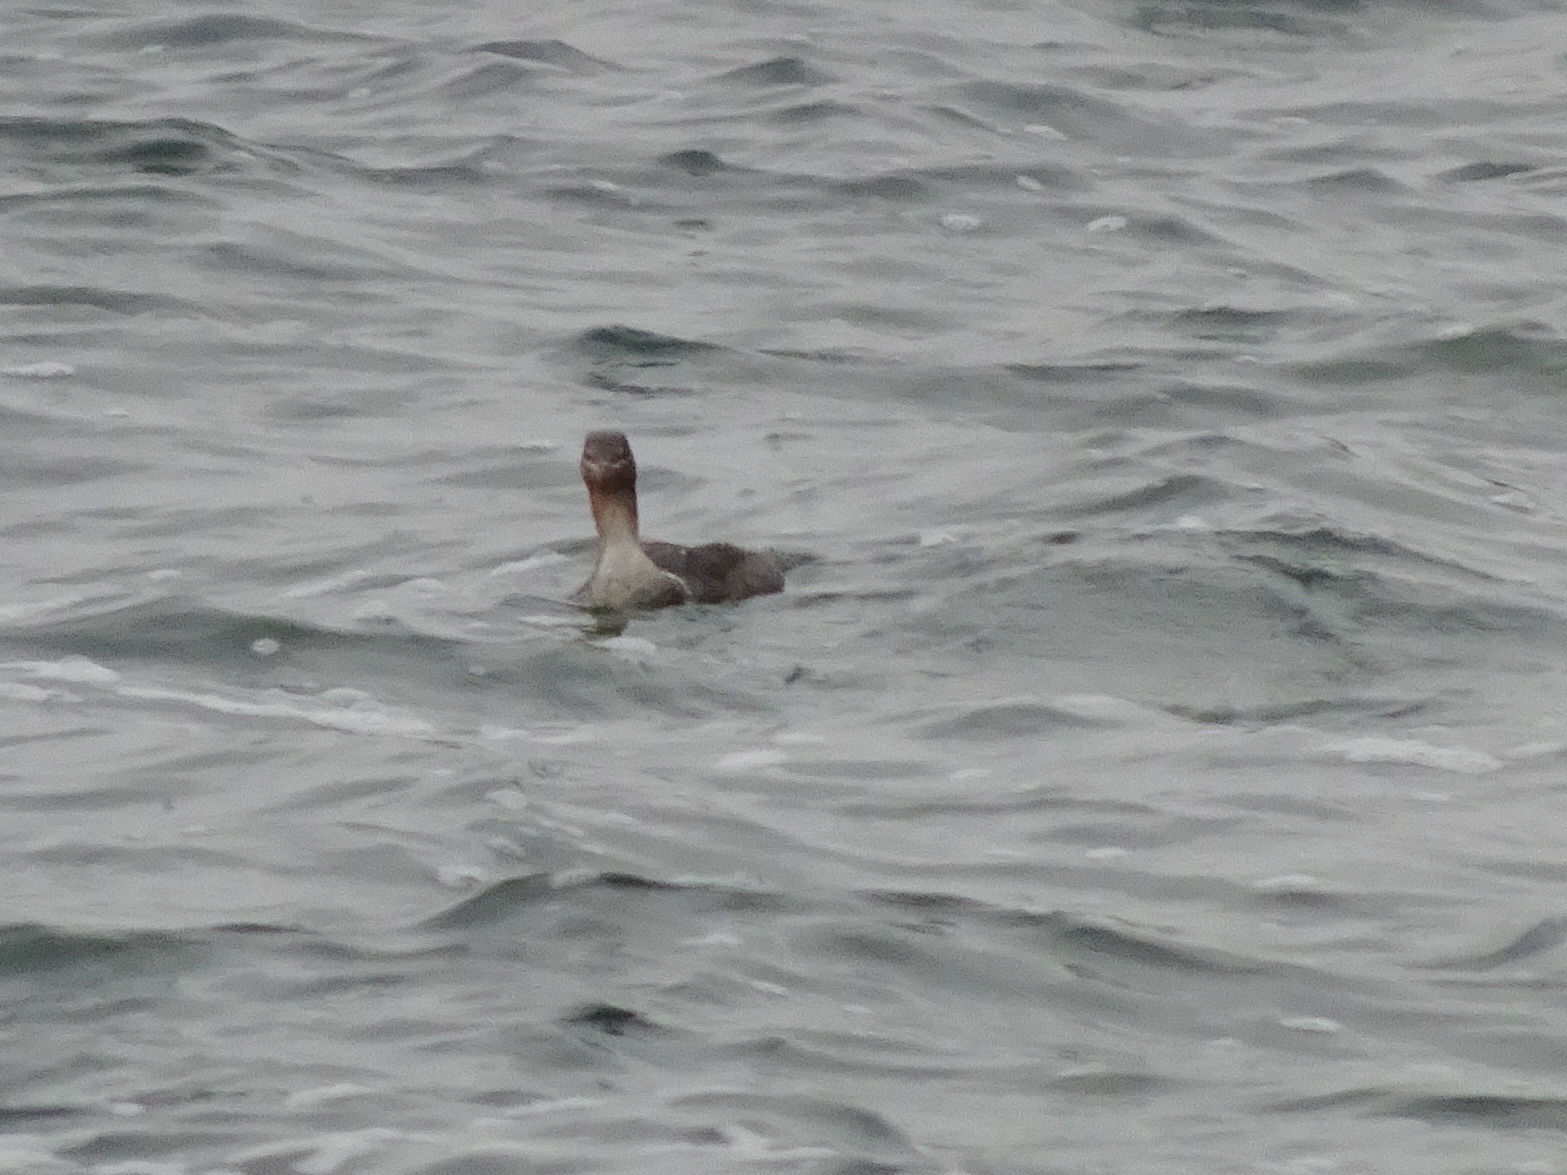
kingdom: Animalia
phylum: Chordata
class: Aves
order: Anseriformes
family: Anatidae
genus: Mergus
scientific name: Mergus serrator
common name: Red-breasted merganser
